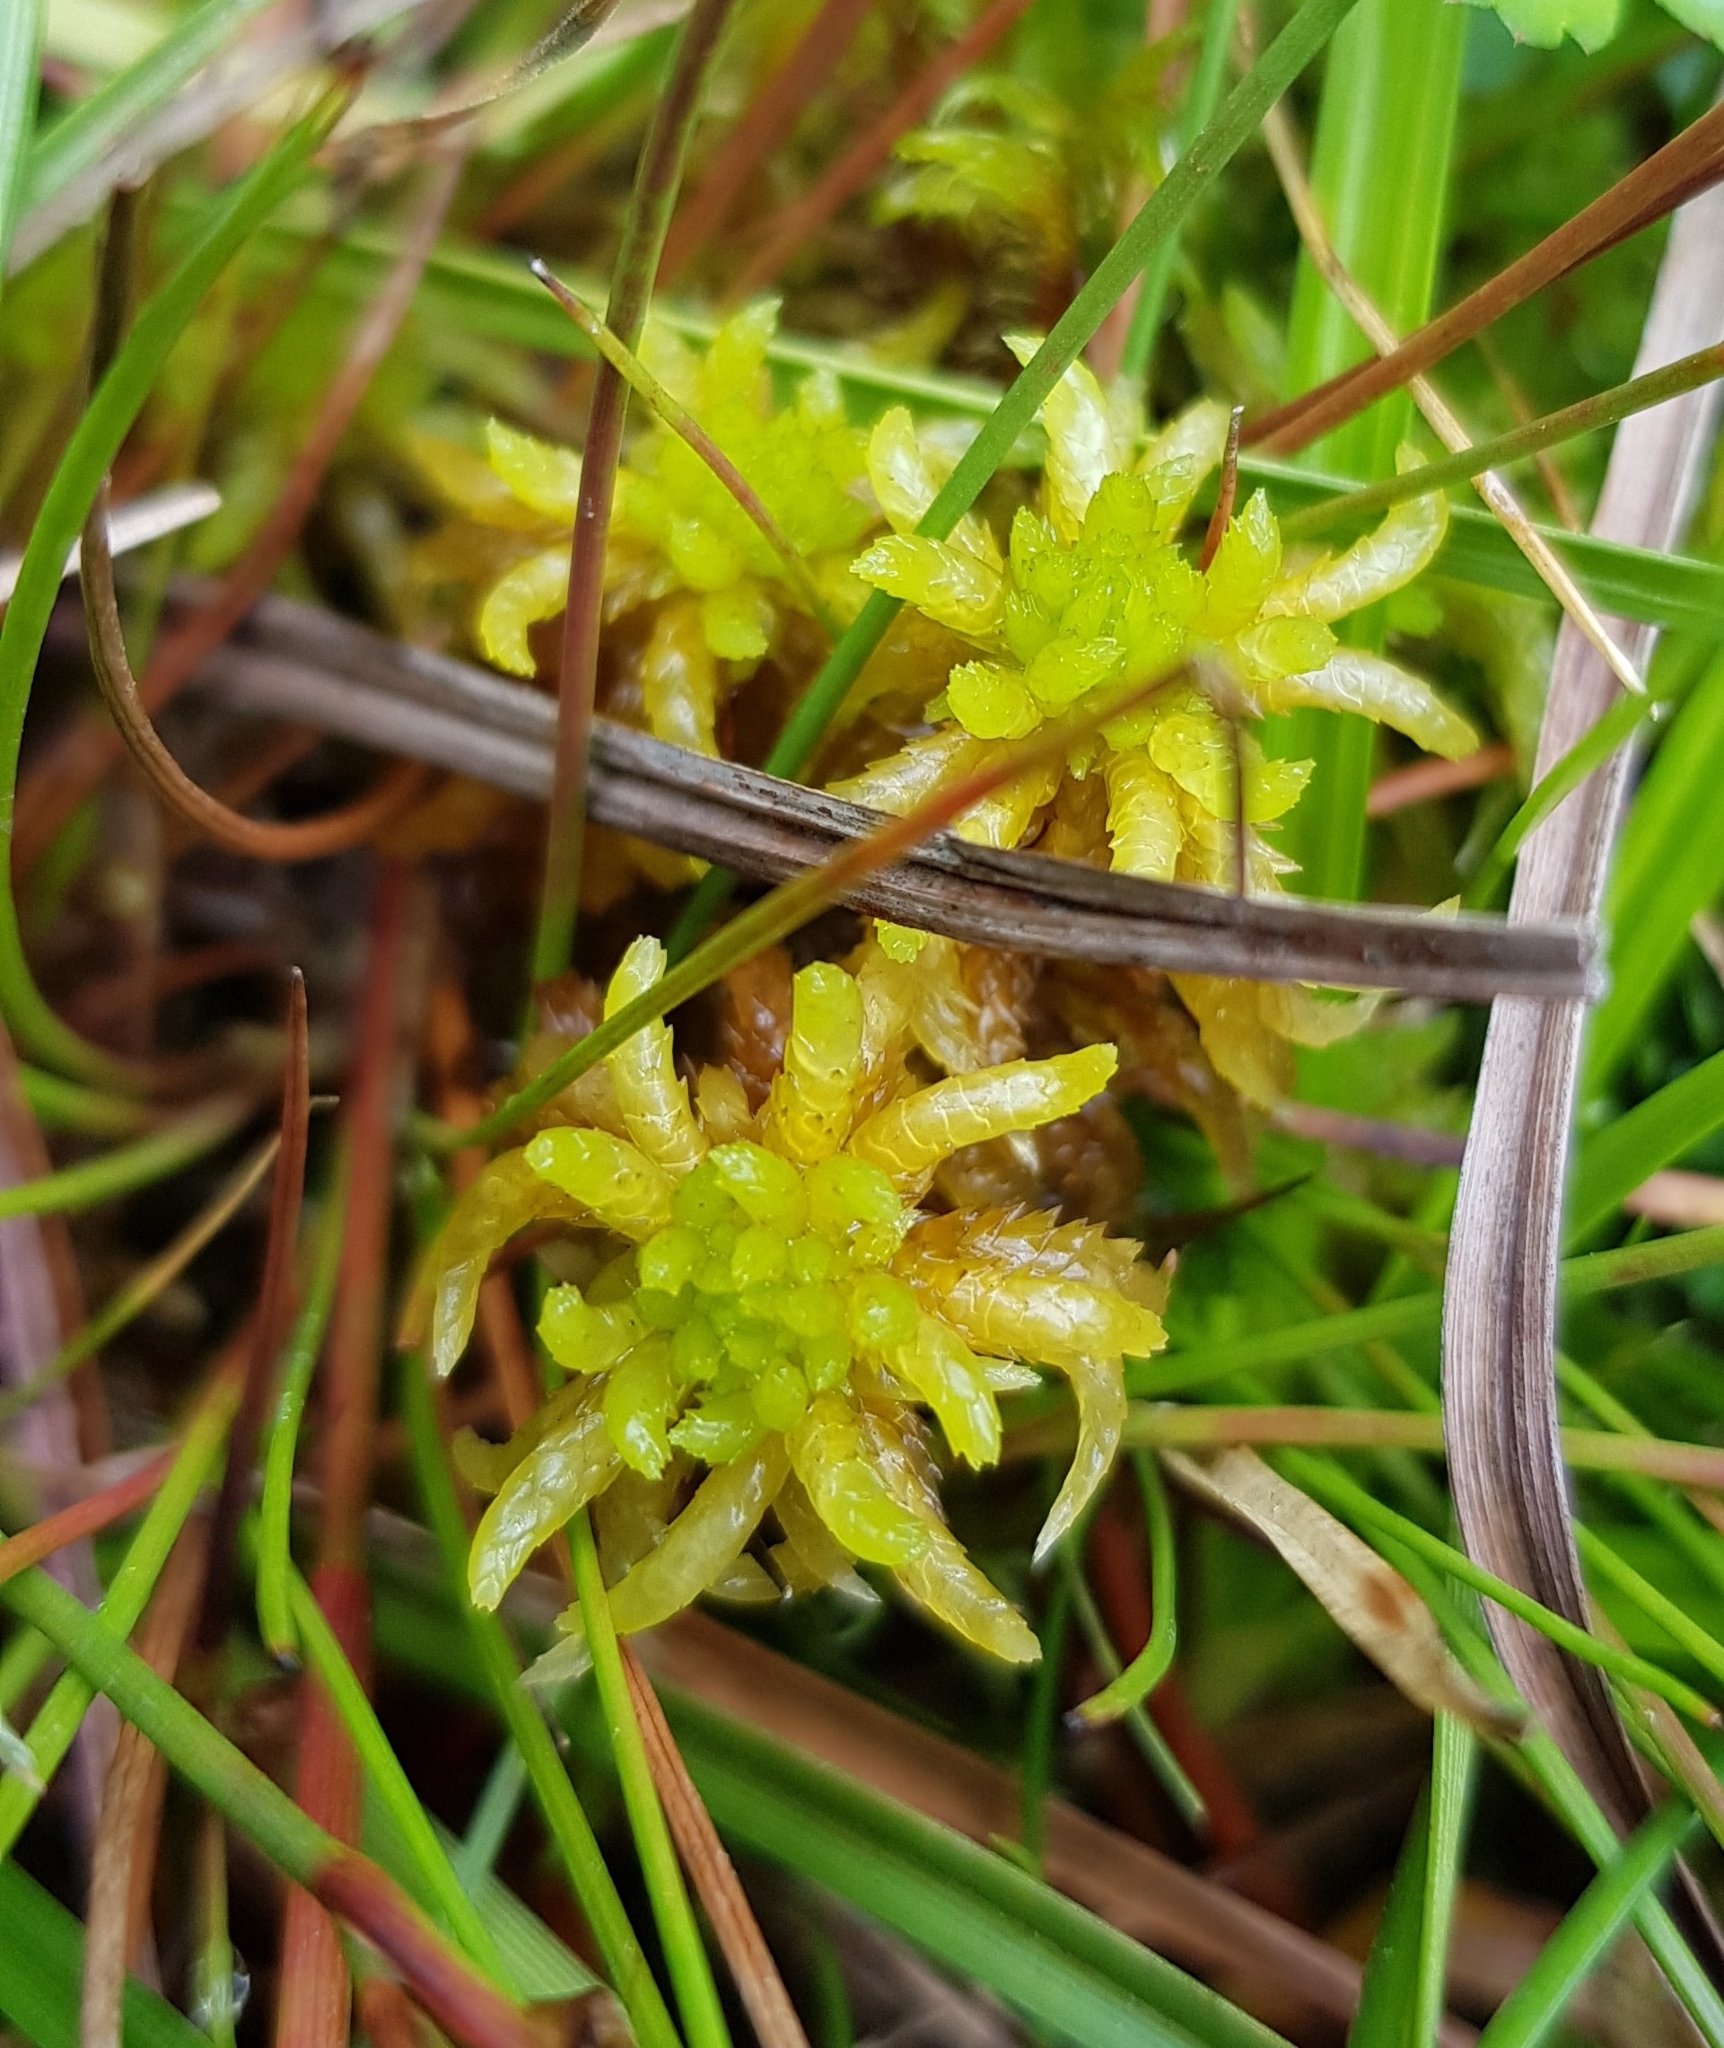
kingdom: Plantae
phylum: Bryophyta
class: Sphagnopsida
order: Sphagnales
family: Sphagnaceae
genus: Sphagnum
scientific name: Sphagnum denticulatum
